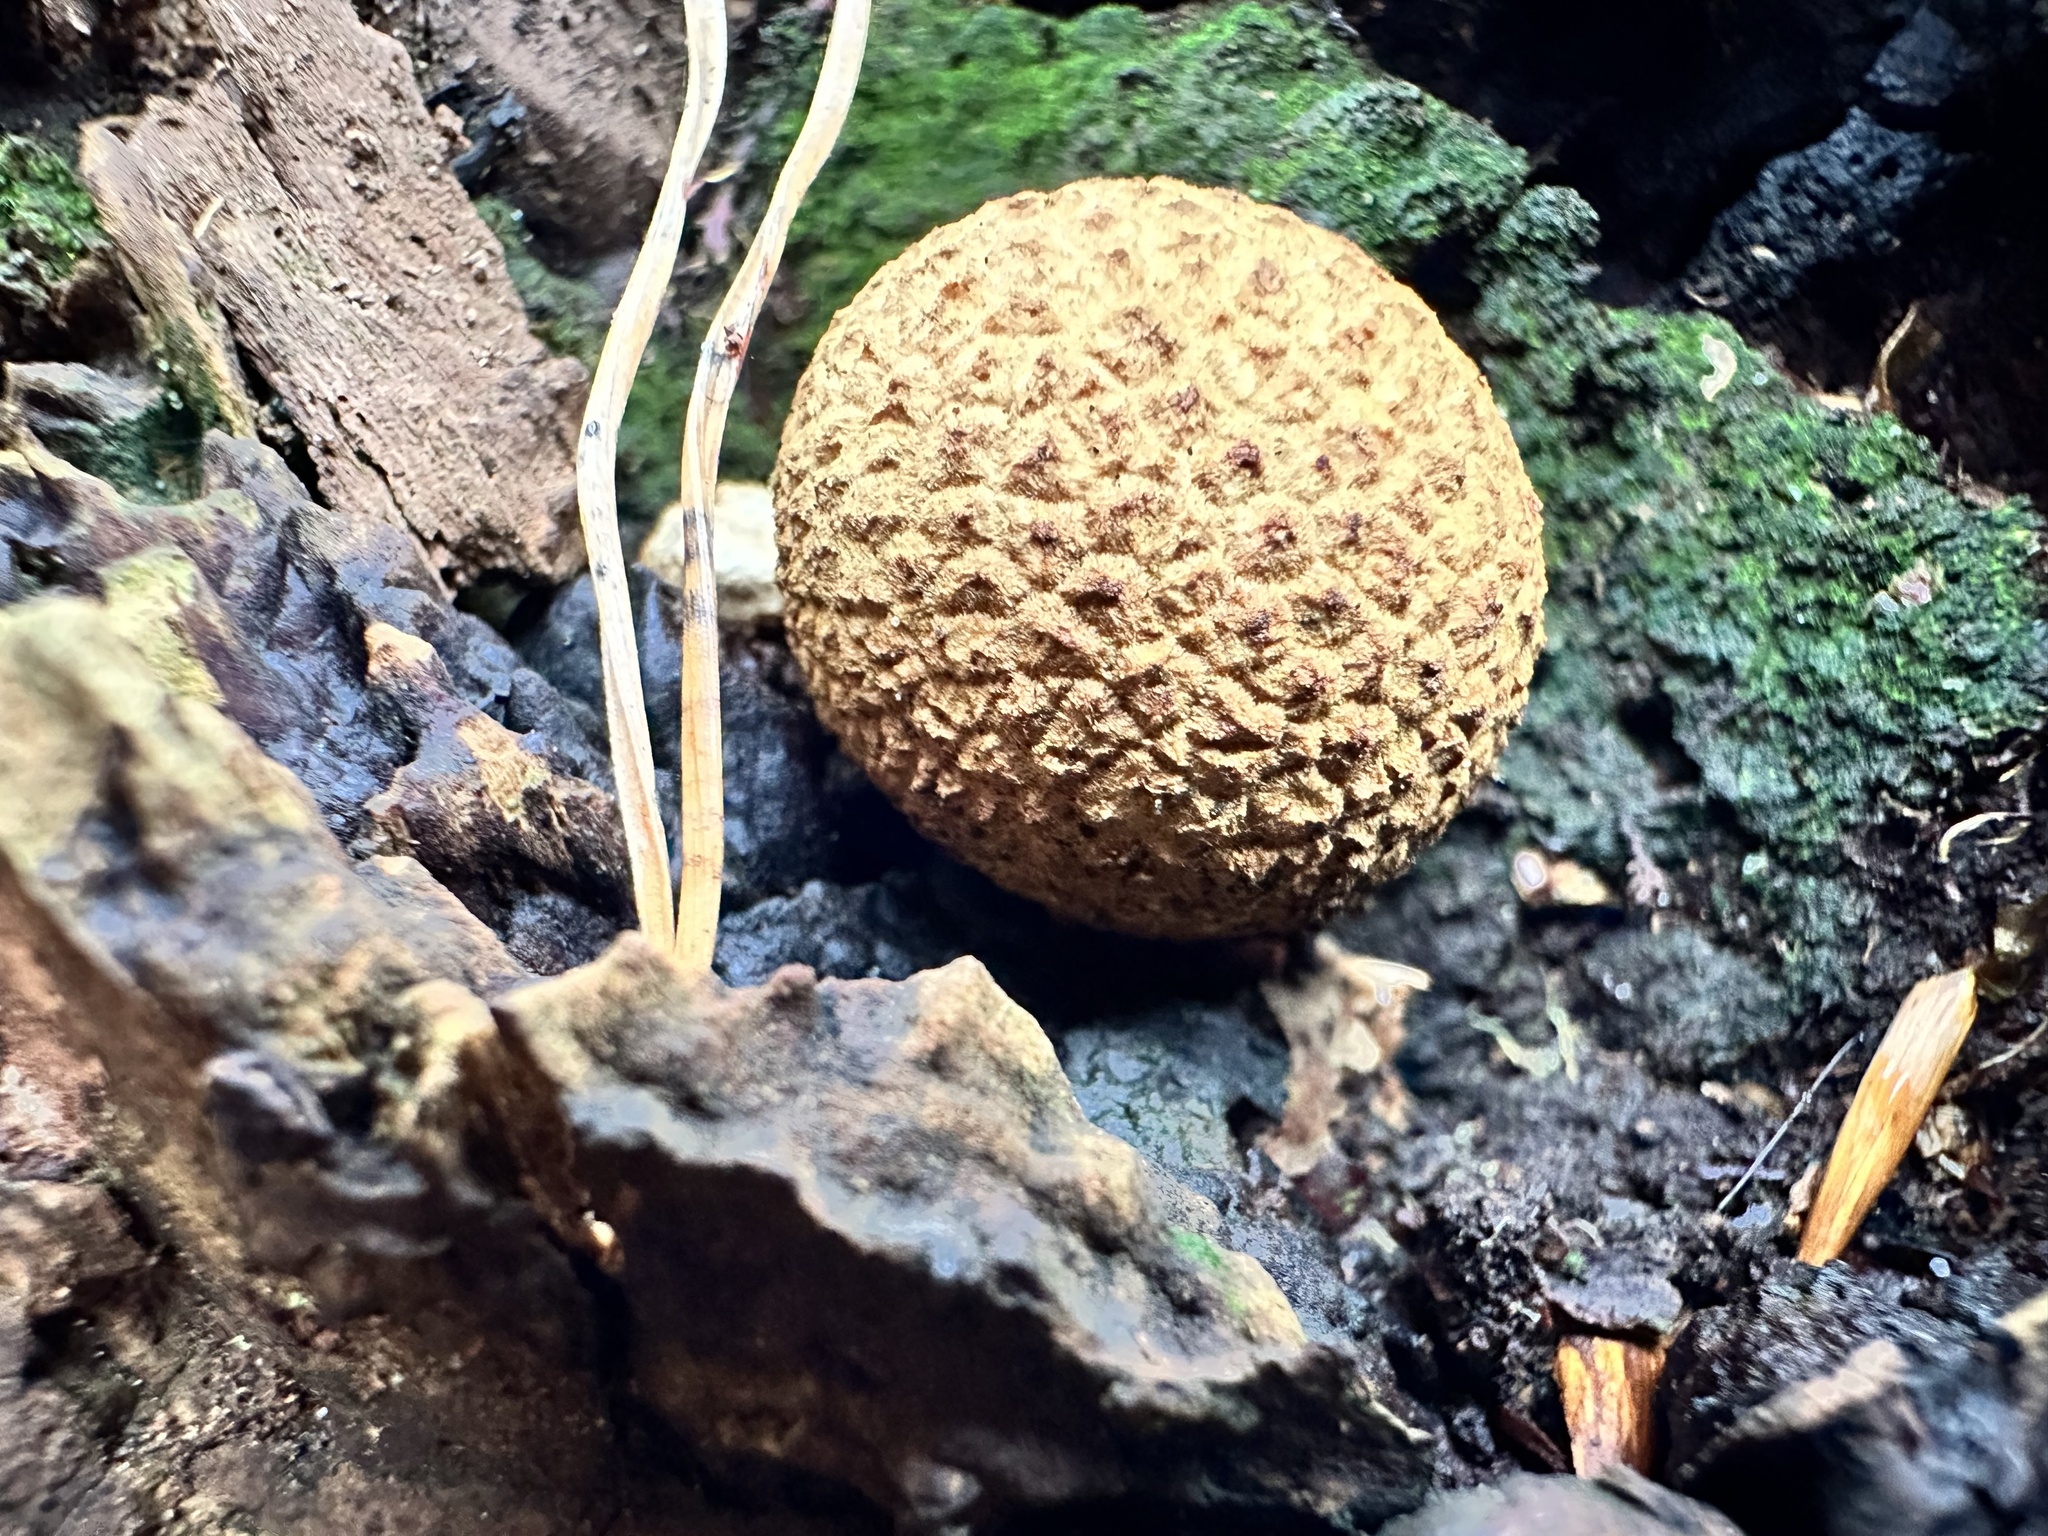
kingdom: Fungi
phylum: Basidiomycota
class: Agaricomycetes
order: Boletales
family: Sclerodermataceae
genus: Scleroderma
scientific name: Scleroderma citrinum
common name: Common earthball
